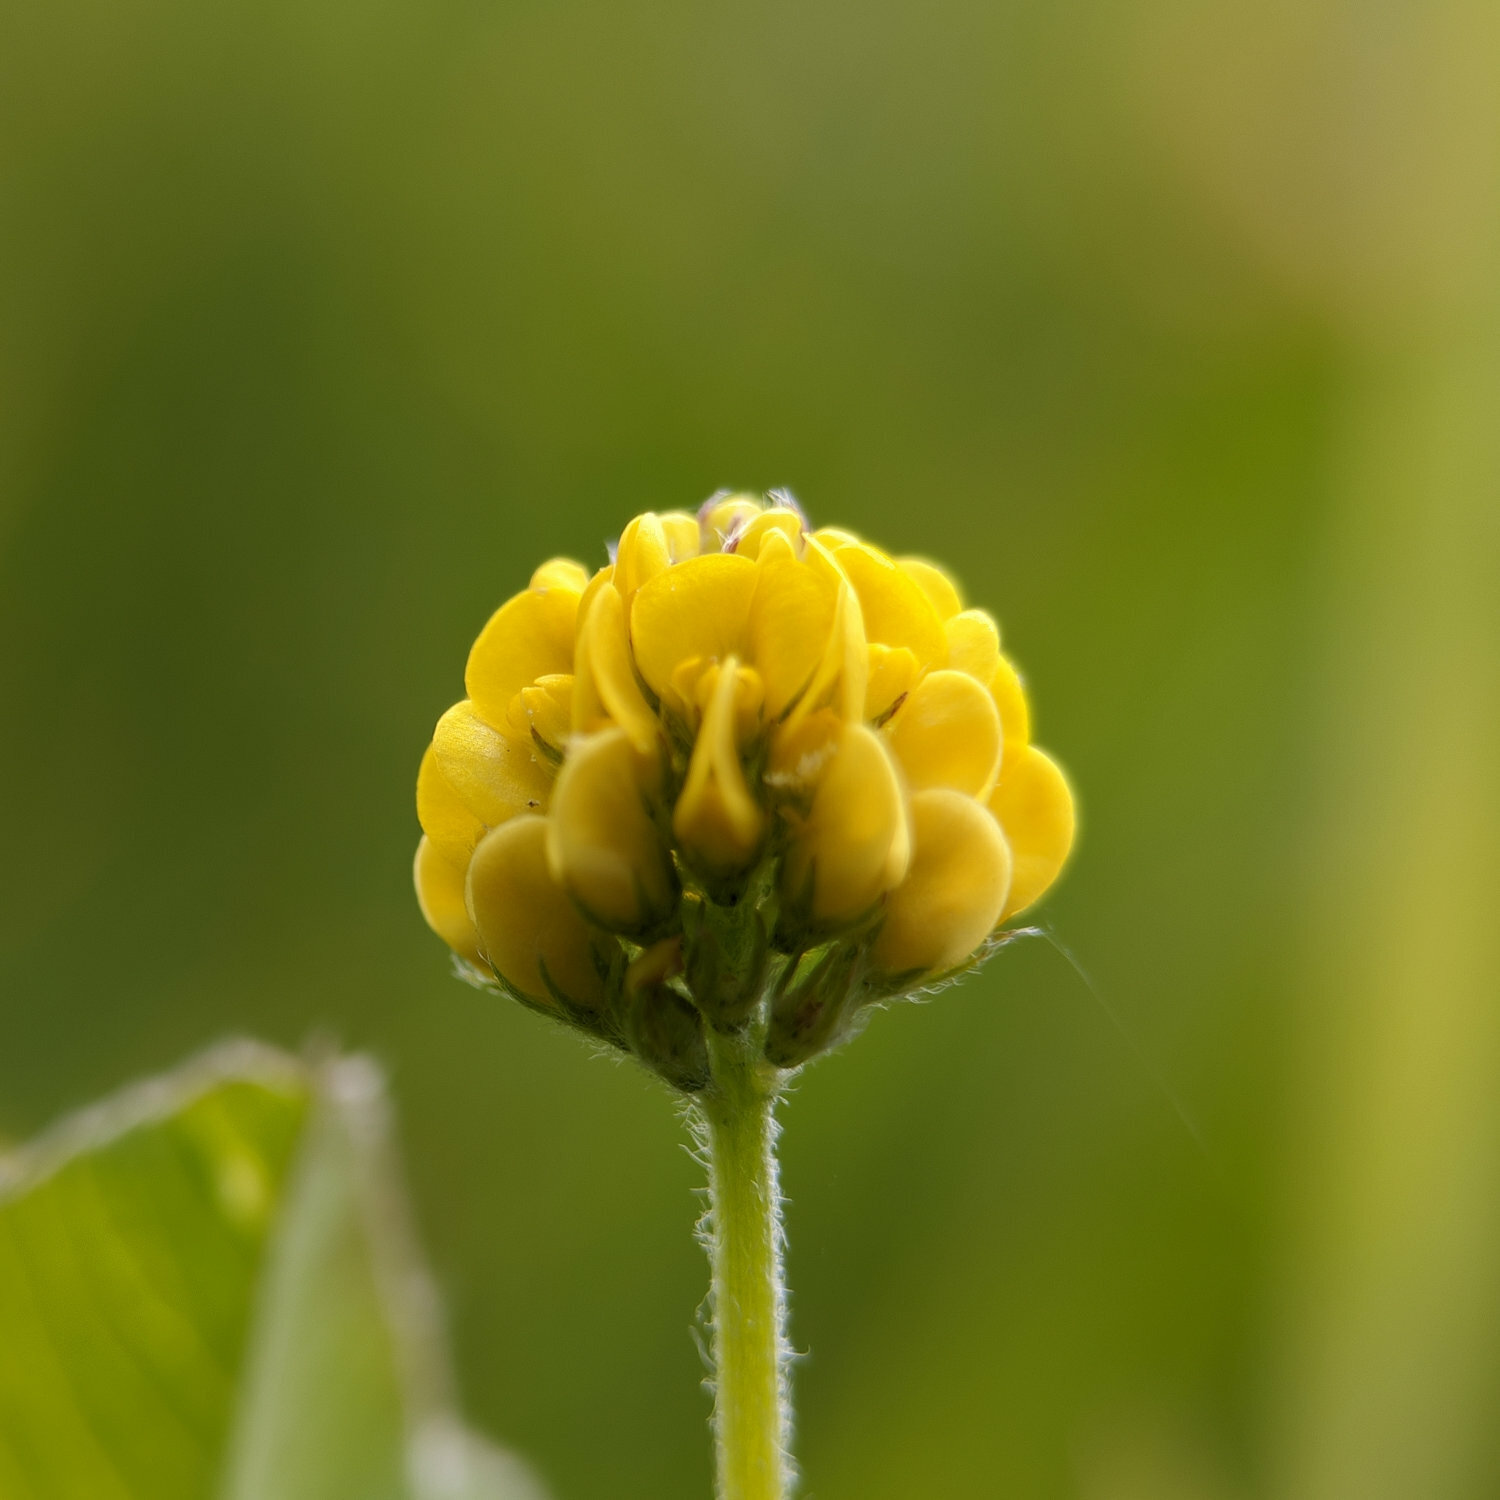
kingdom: Plantae
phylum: Tracheophyta
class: Magnoliopsida
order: Fabales
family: Fabaceae
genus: Medicago
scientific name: Medicago lupulina
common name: Black medick
